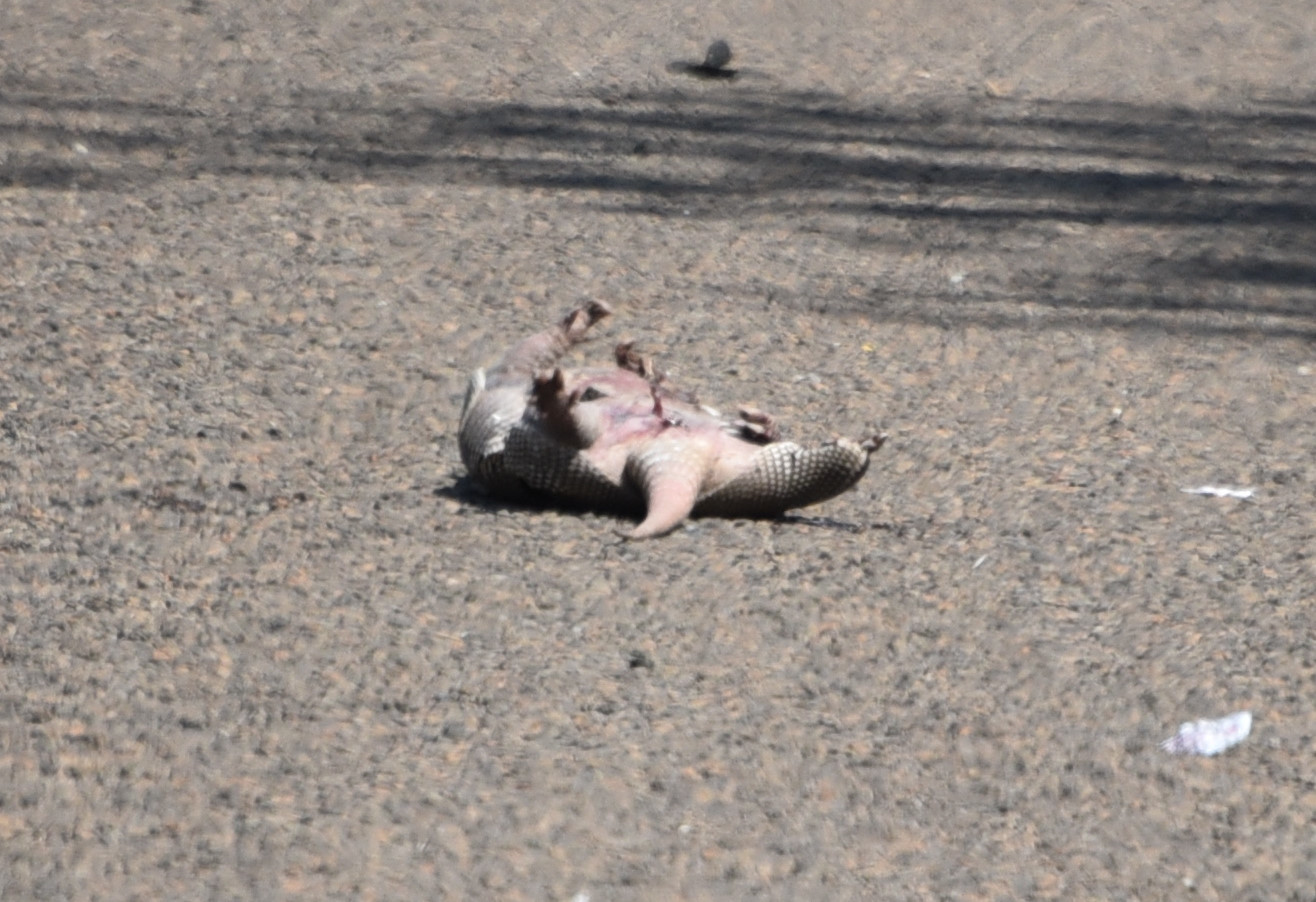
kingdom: Animalia
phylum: Chordata
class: Mammalia
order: Cingulata
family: Dasypodidae
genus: Dasypus
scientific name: Dasypus novemcinctus
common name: Nine-banded armadillo
